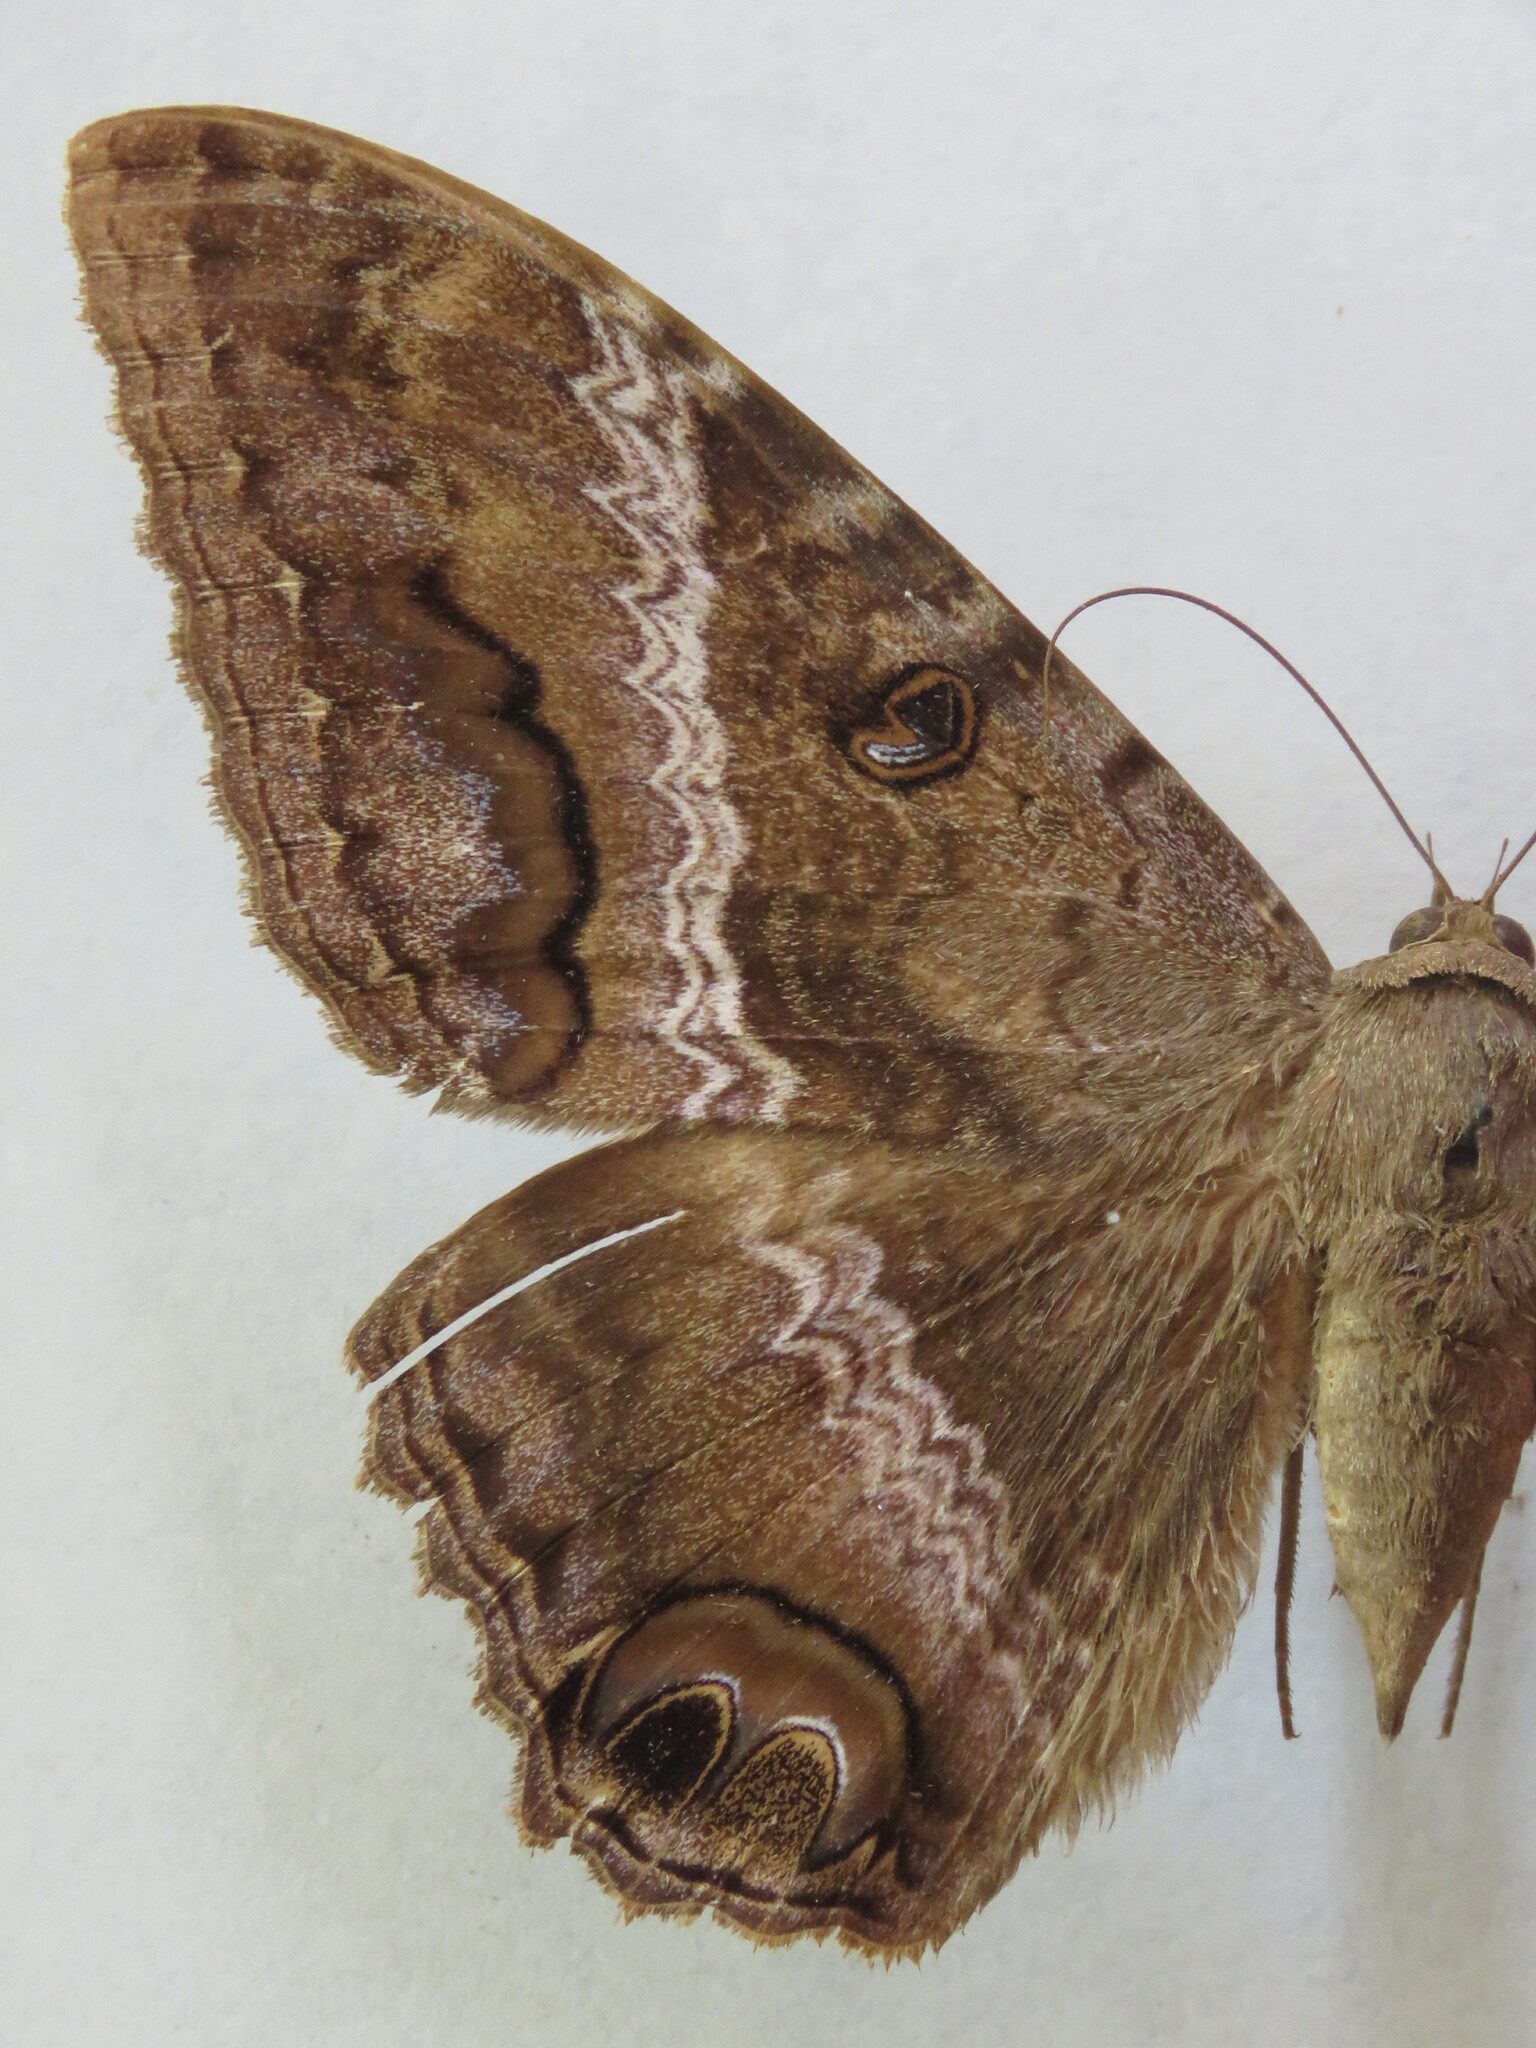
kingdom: Animalia
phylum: Arthropoda
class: Insecta
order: Lepidoptera
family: Erebidae
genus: Ascalapha
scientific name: Ascalapha odorata
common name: Black witch
